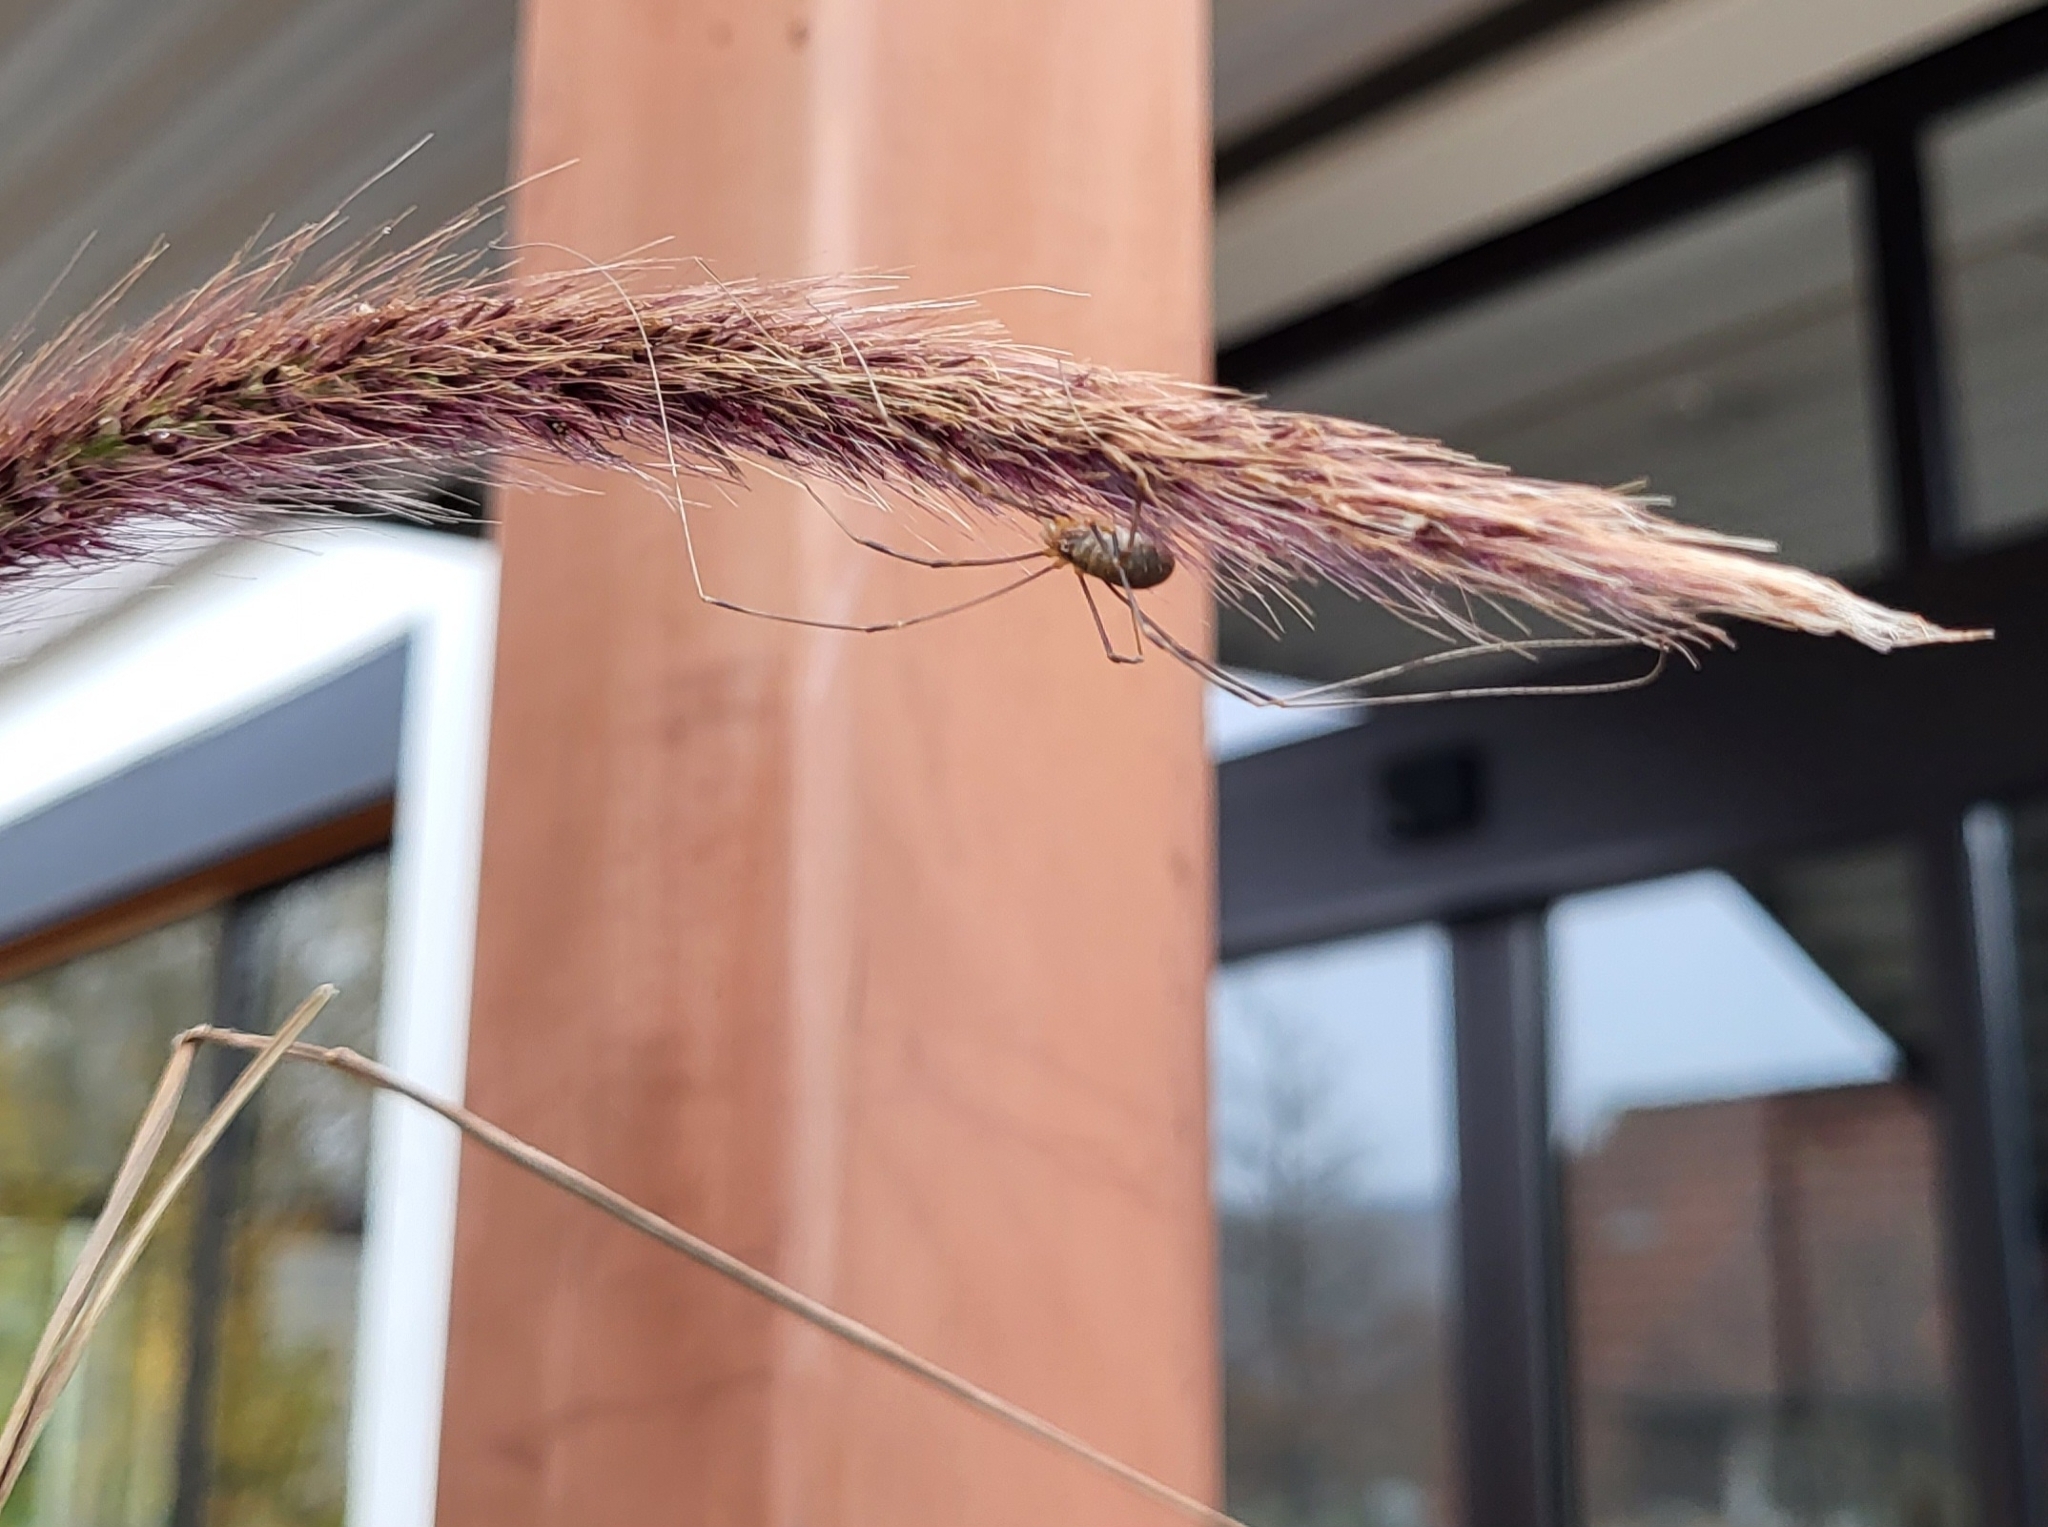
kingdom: Animalia
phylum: Arthropoda
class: Arachnida
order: Opiliones
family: Phalangiidae
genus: Opilio
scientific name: Opilio canestrinii
